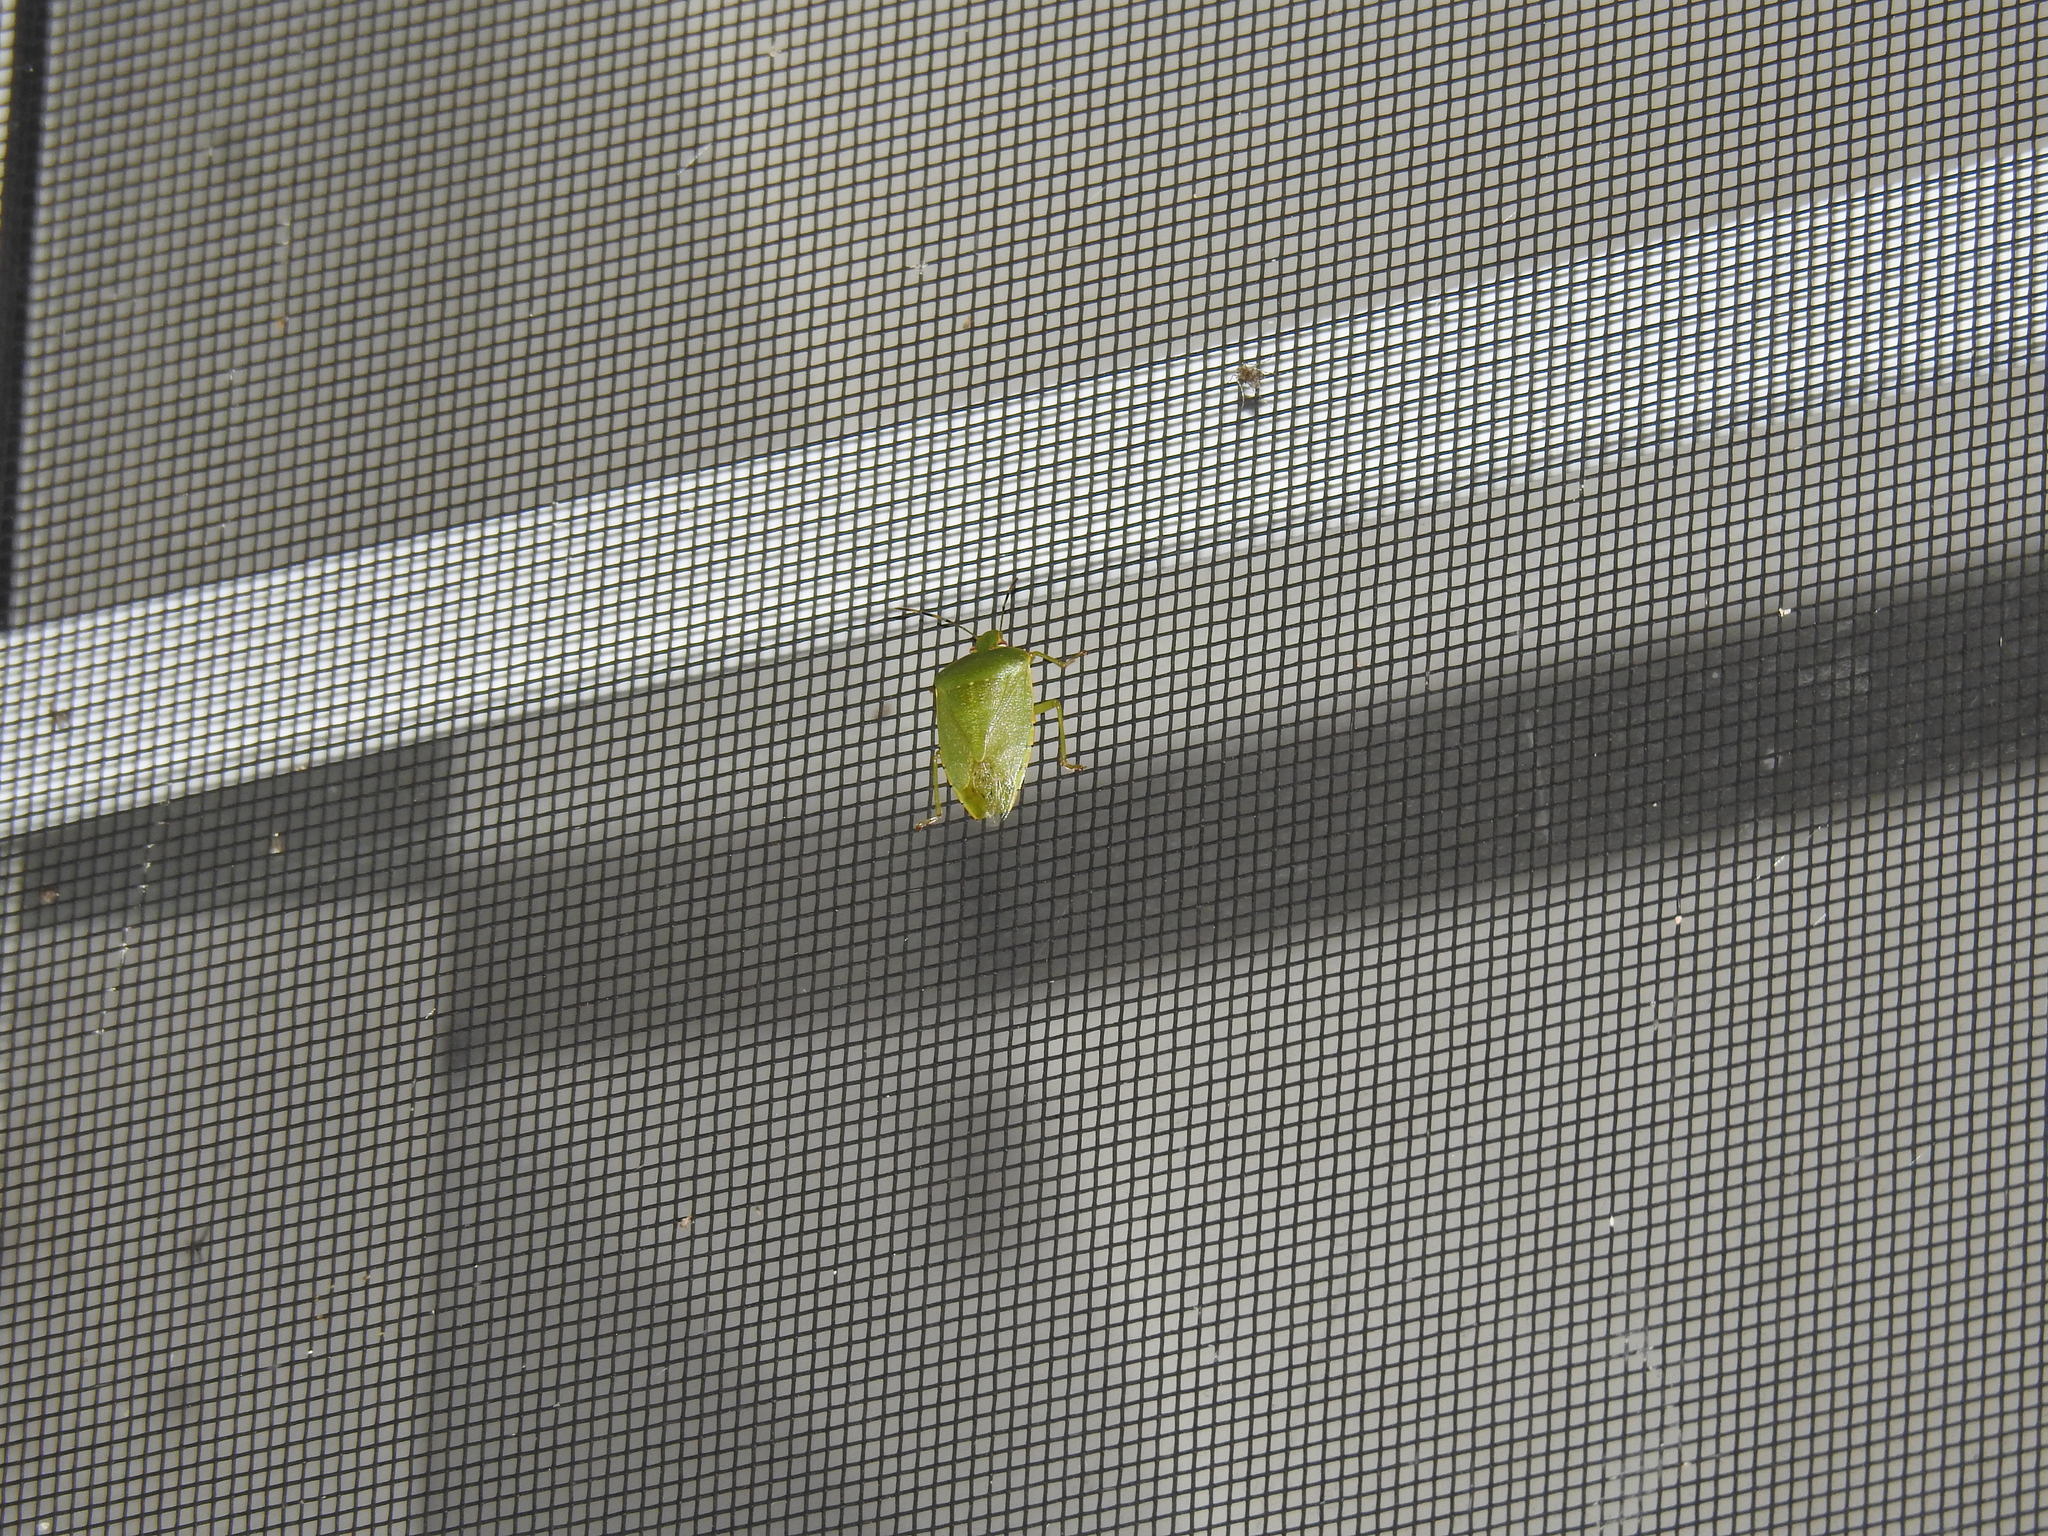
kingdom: Animalia
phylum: Arthropoda
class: Insecta
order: Hemiptera
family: Pentatomidae
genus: Chinavia
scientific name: Chinavia hilaris
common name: Green stink bug
